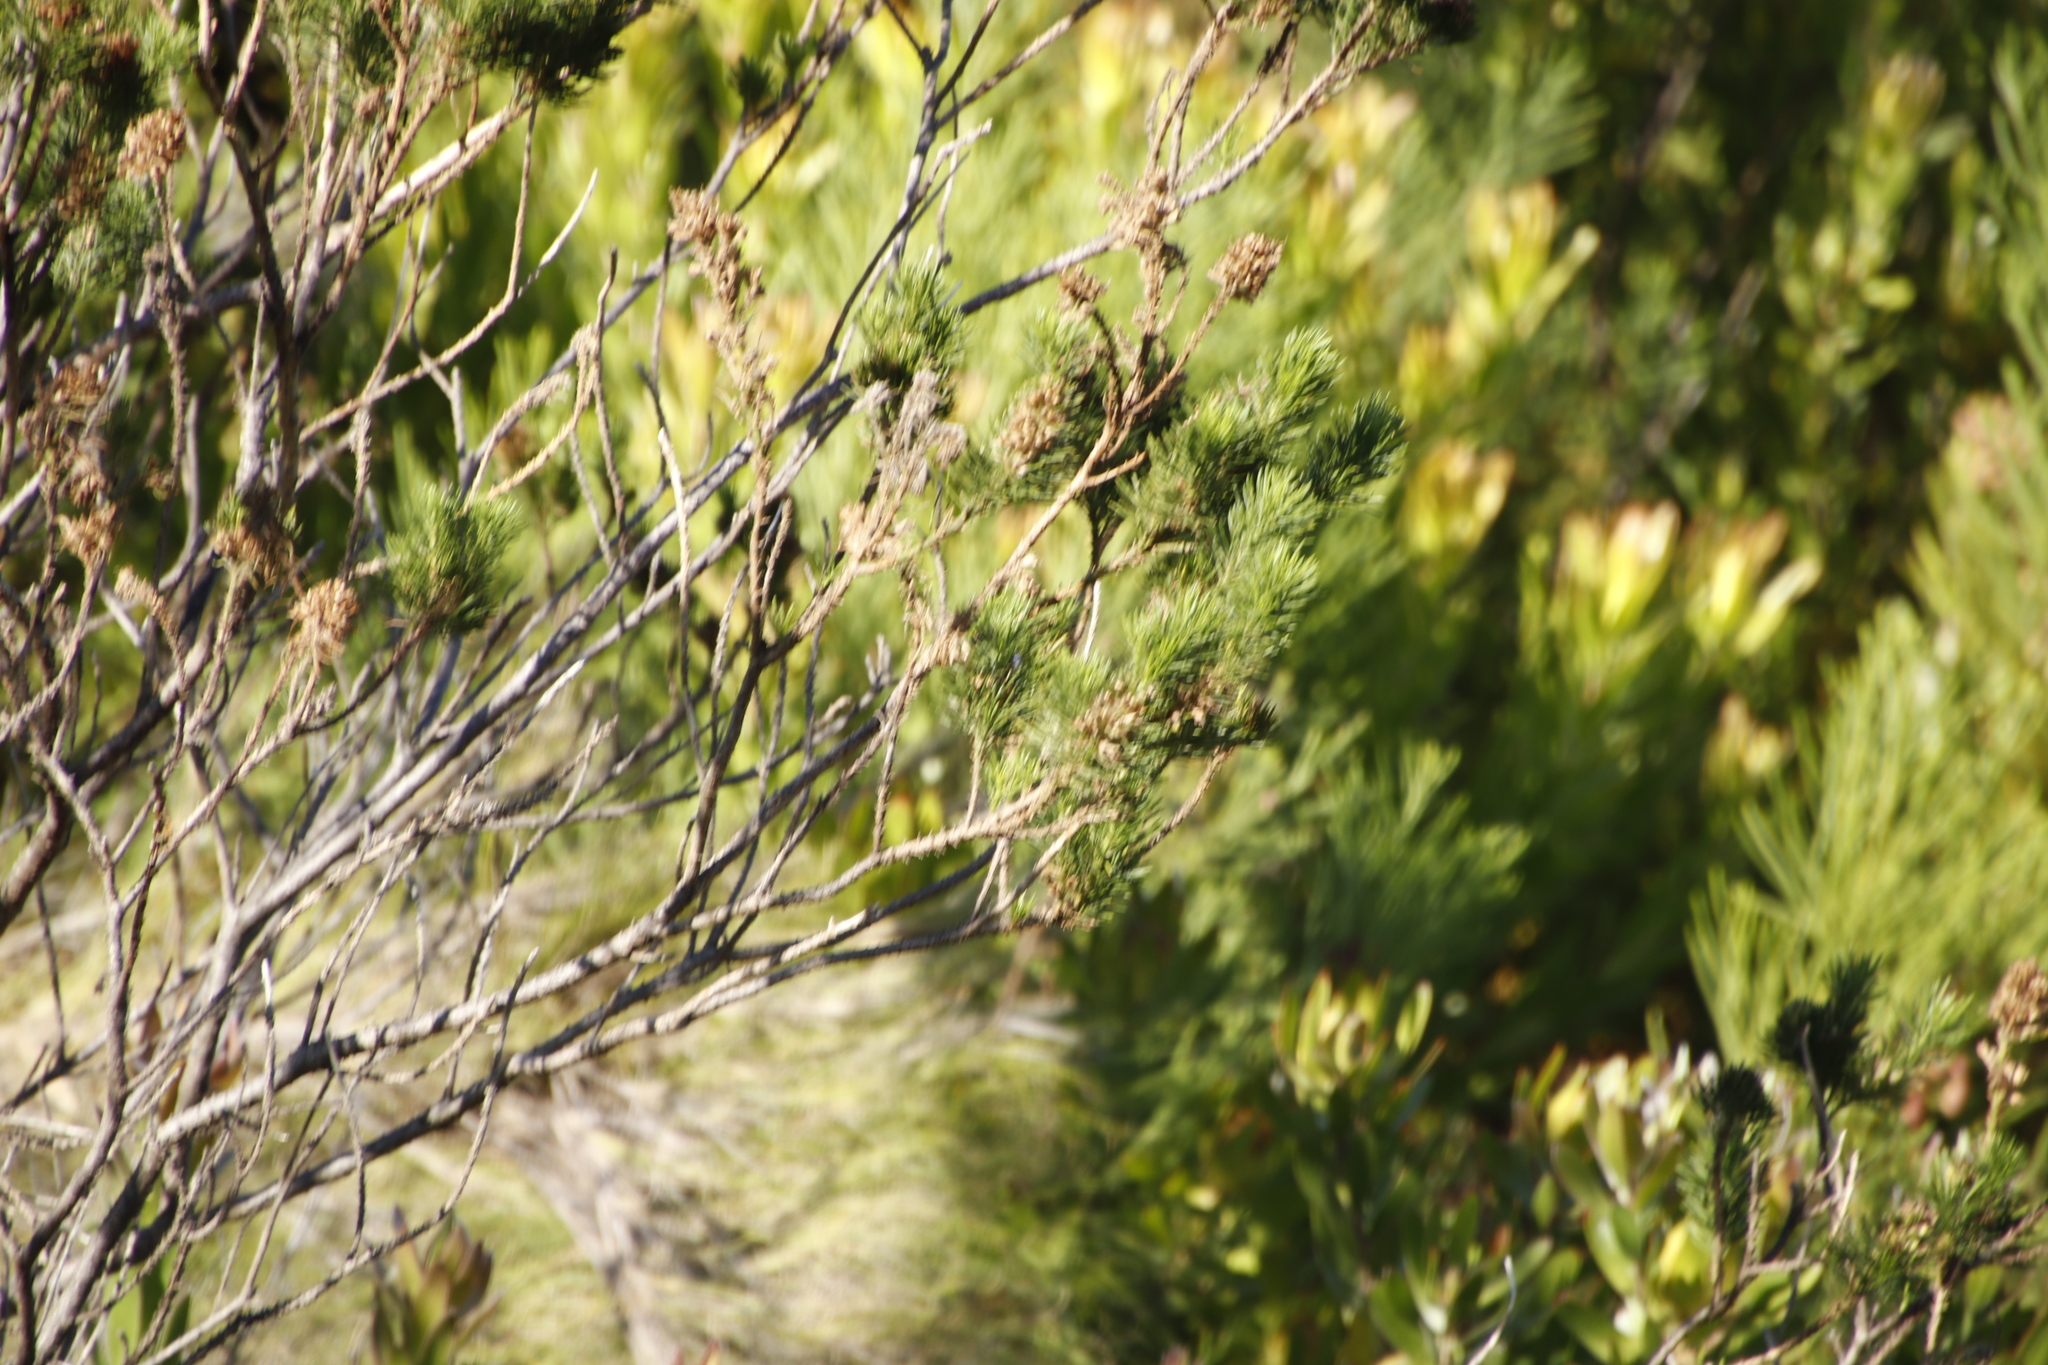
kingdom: Plantae
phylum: Tracheophyta
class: Magnoliopsida
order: Fabales
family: Fabaceae
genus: Psoralea
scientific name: Psoralea pinnata
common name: African scurfpea
